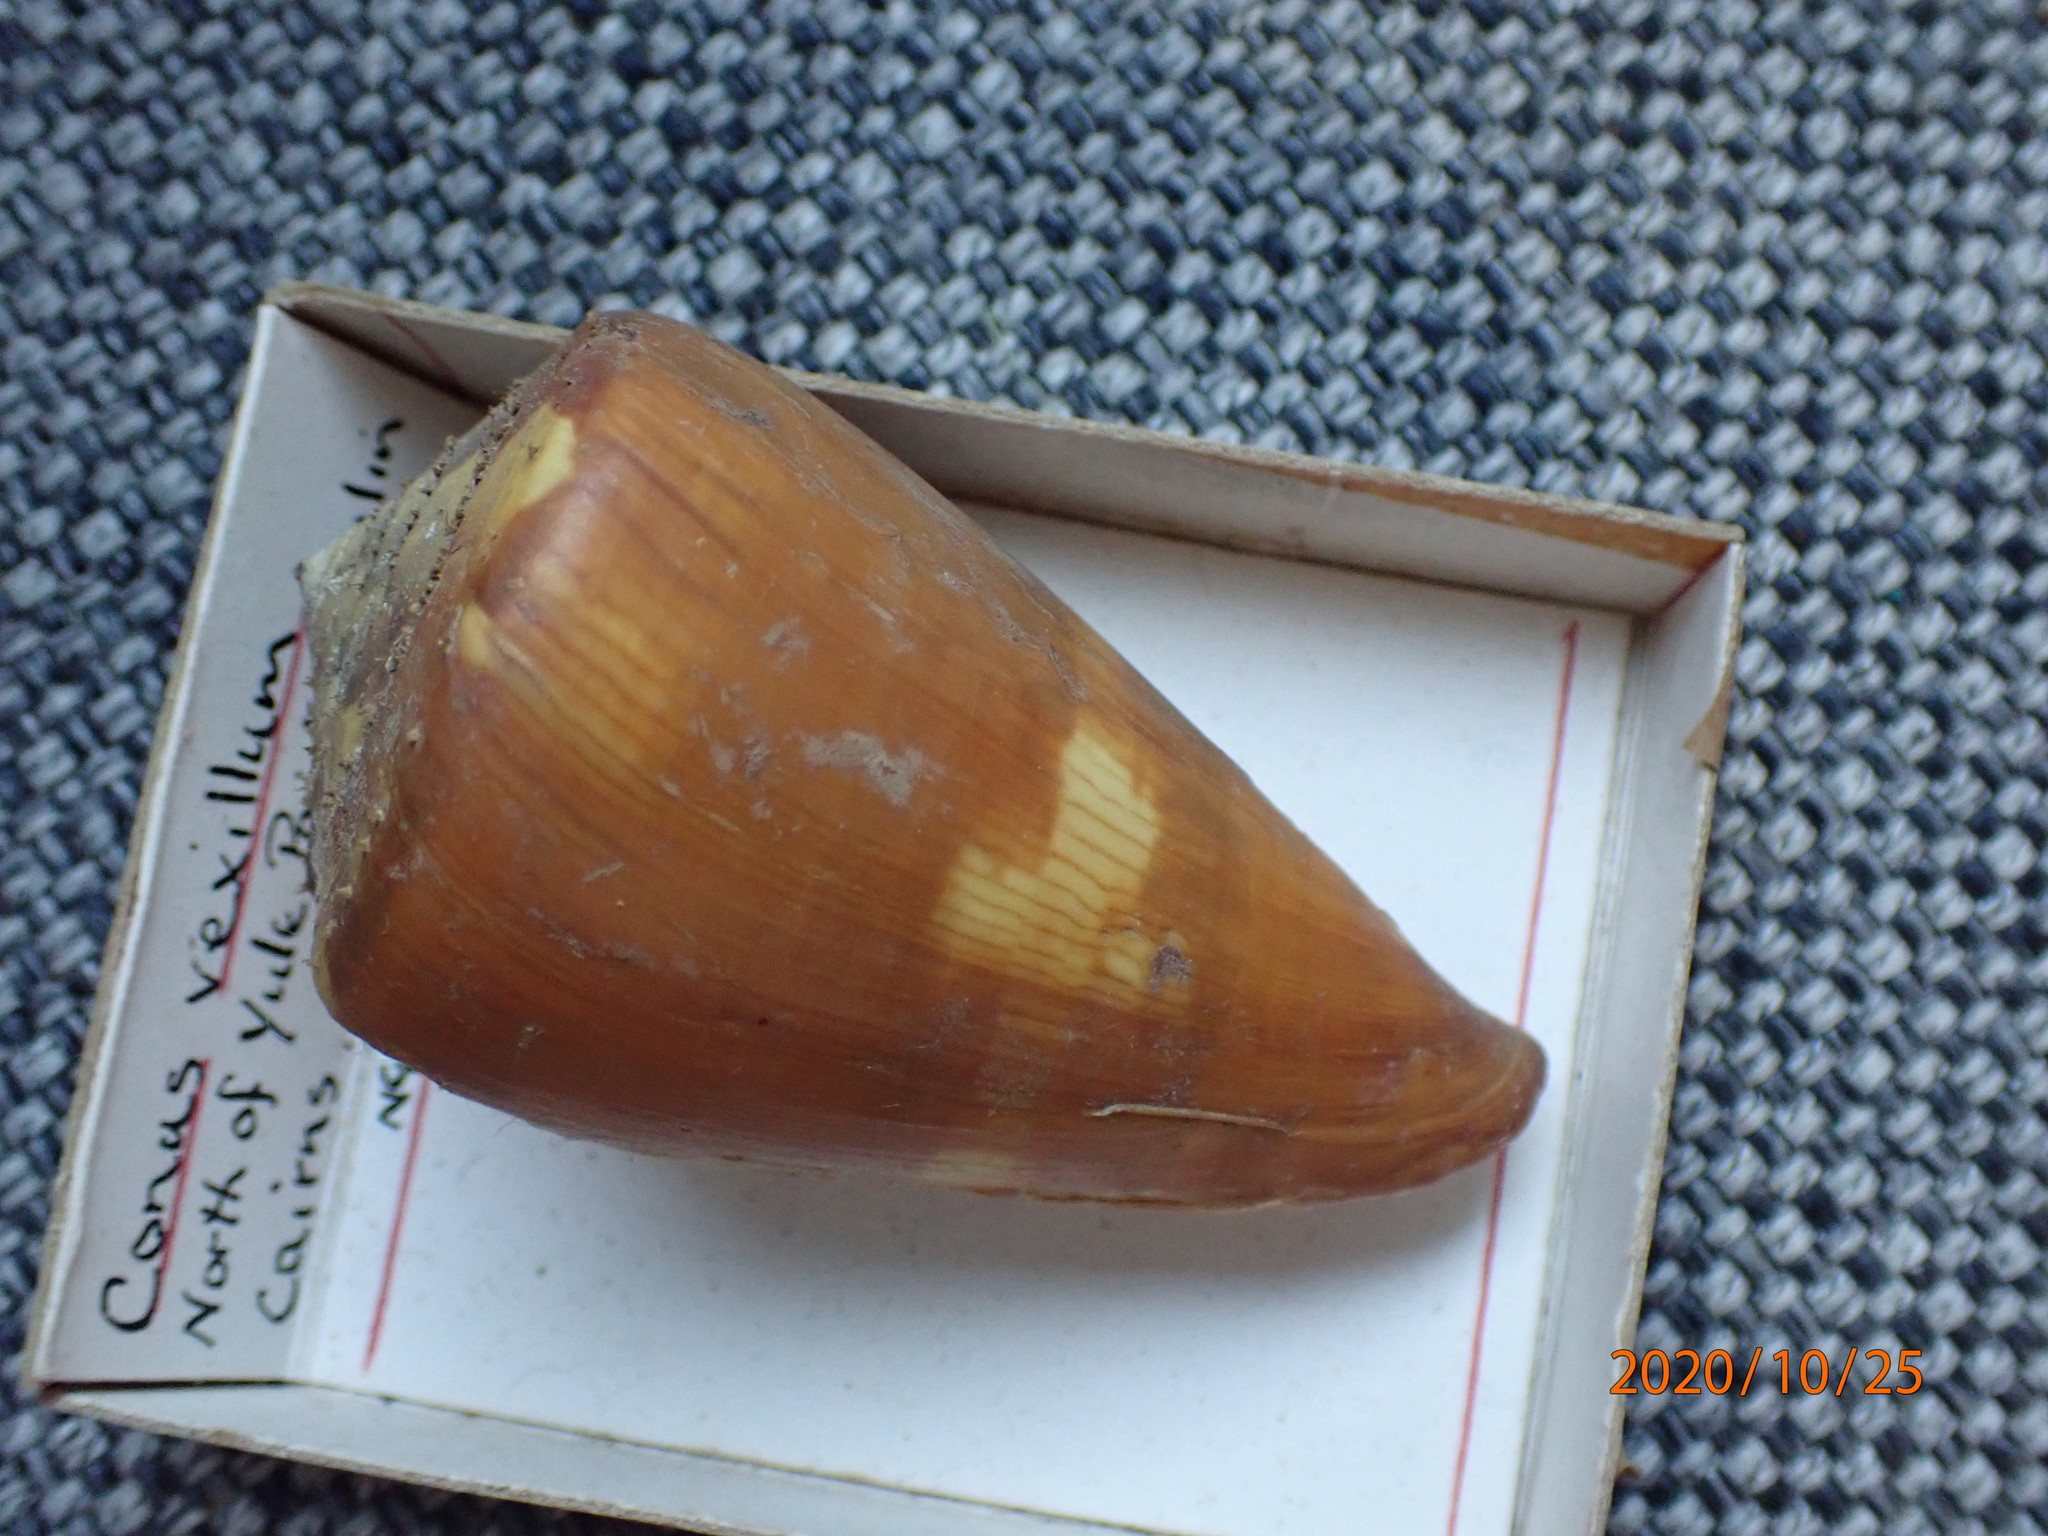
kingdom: Animalia
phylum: Mollusca
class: Gastropoda
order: Neogastropoda
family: Conidae
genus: Conus
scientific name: Conus vexillum
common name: Flag cone
